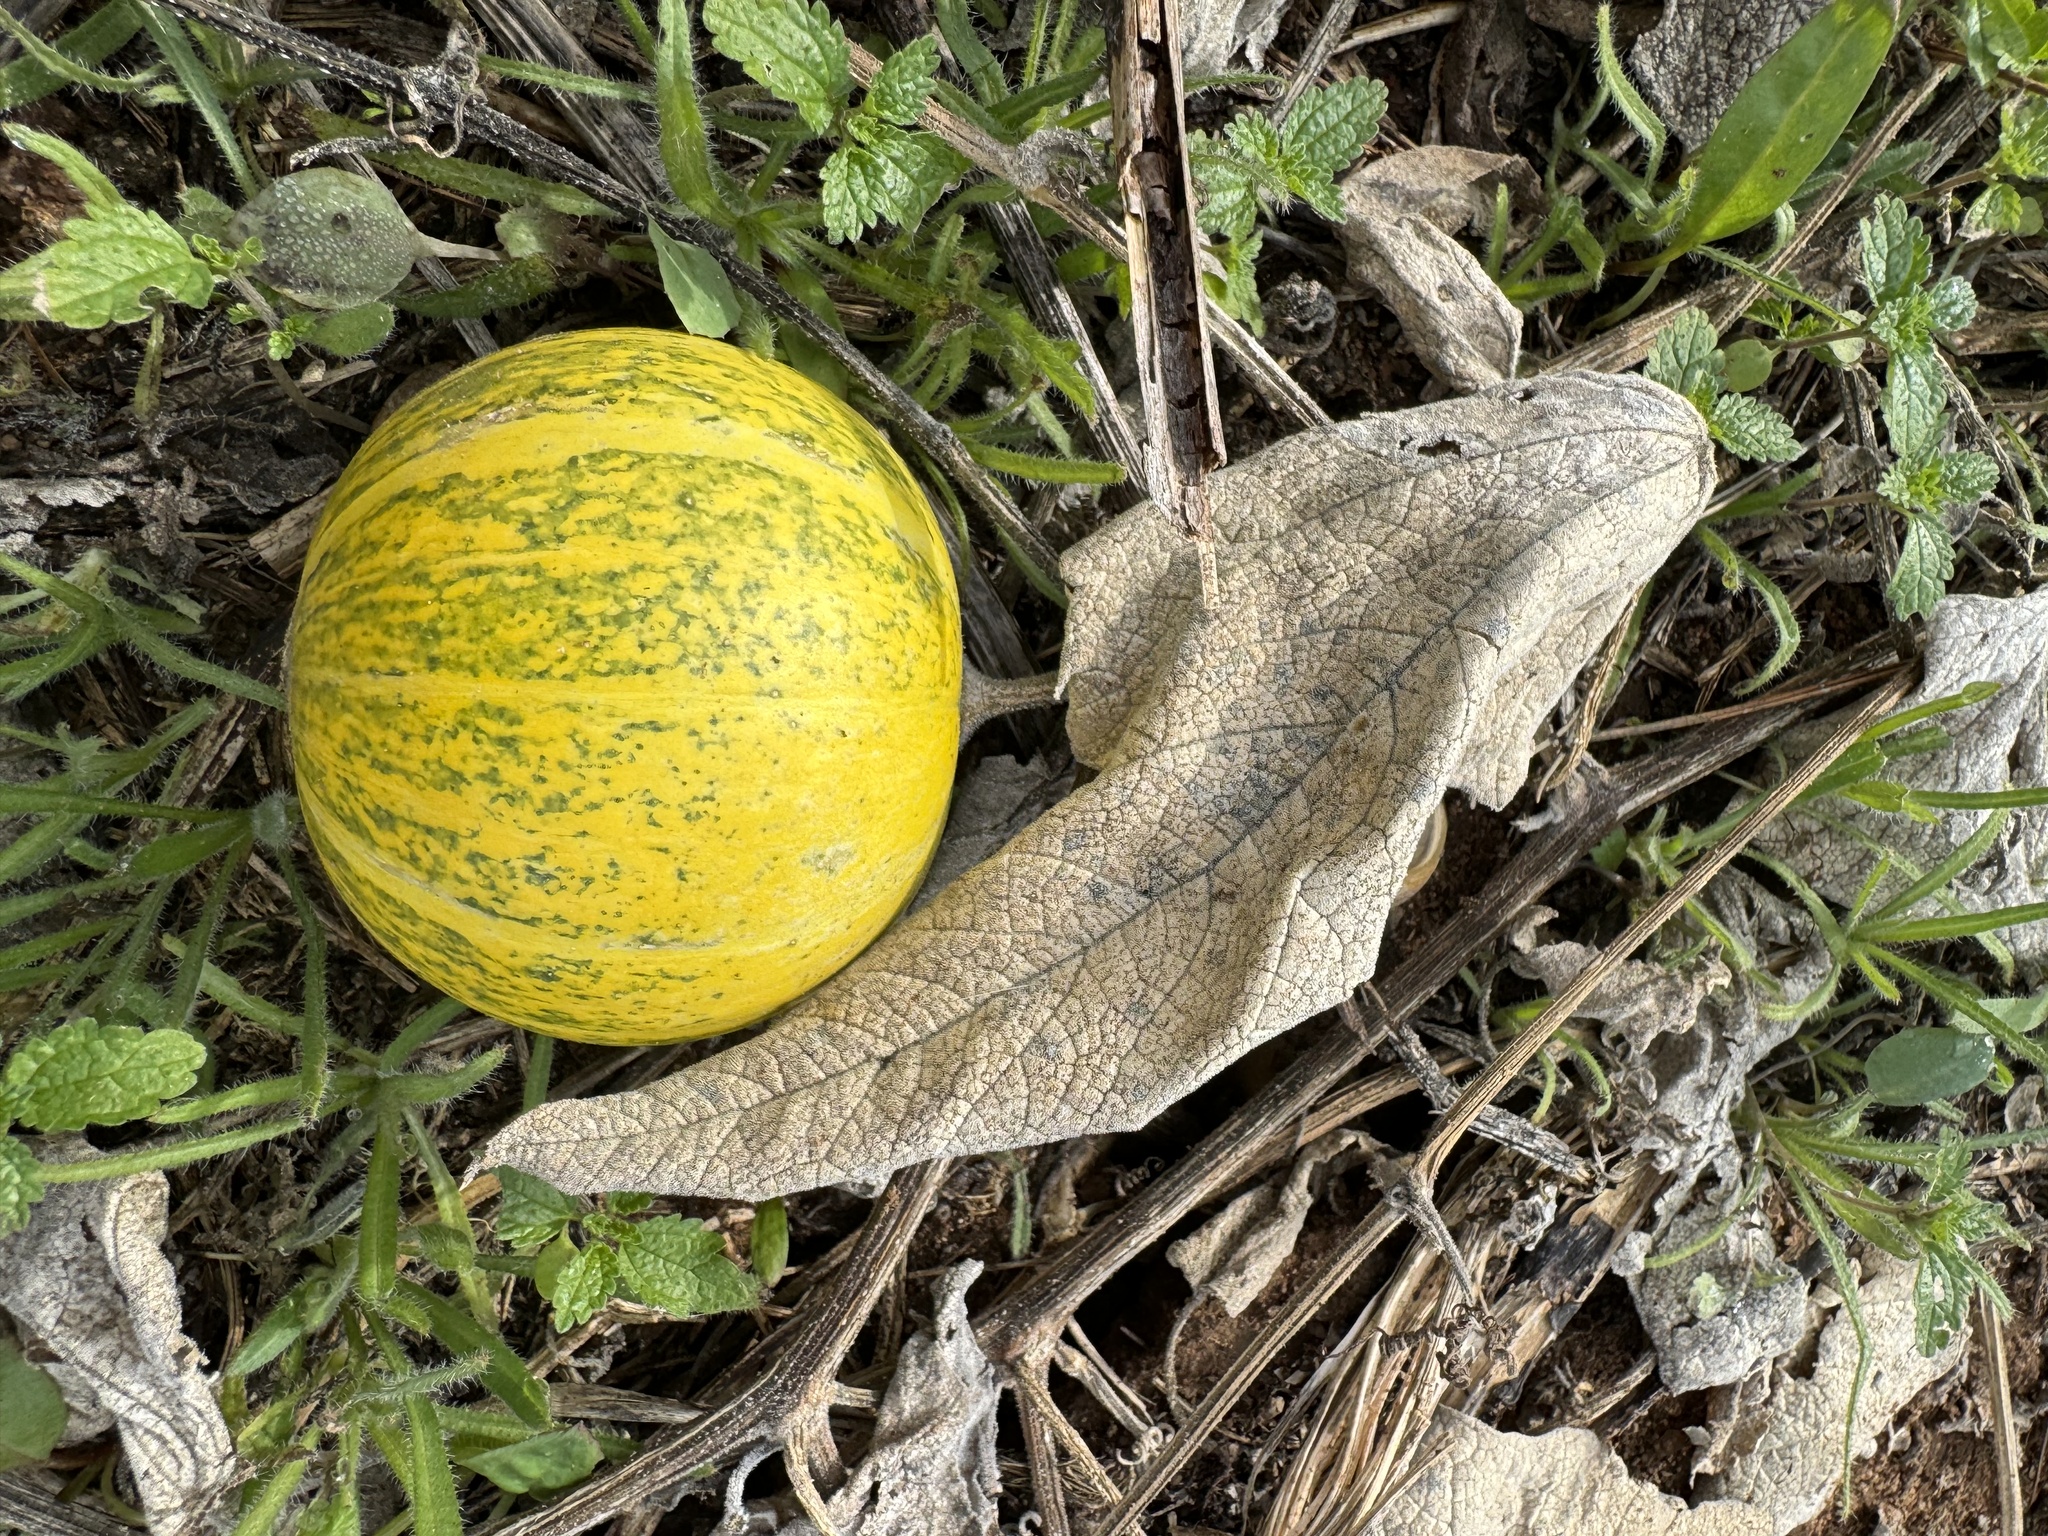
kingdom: Plantae
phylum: Tracheophyta
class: Magnoliopsida
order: Cucurbitales
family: Cucurbitaceae
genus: Cucurbita
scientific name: Cucurbita foetidissima
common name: Buffalo gourd
